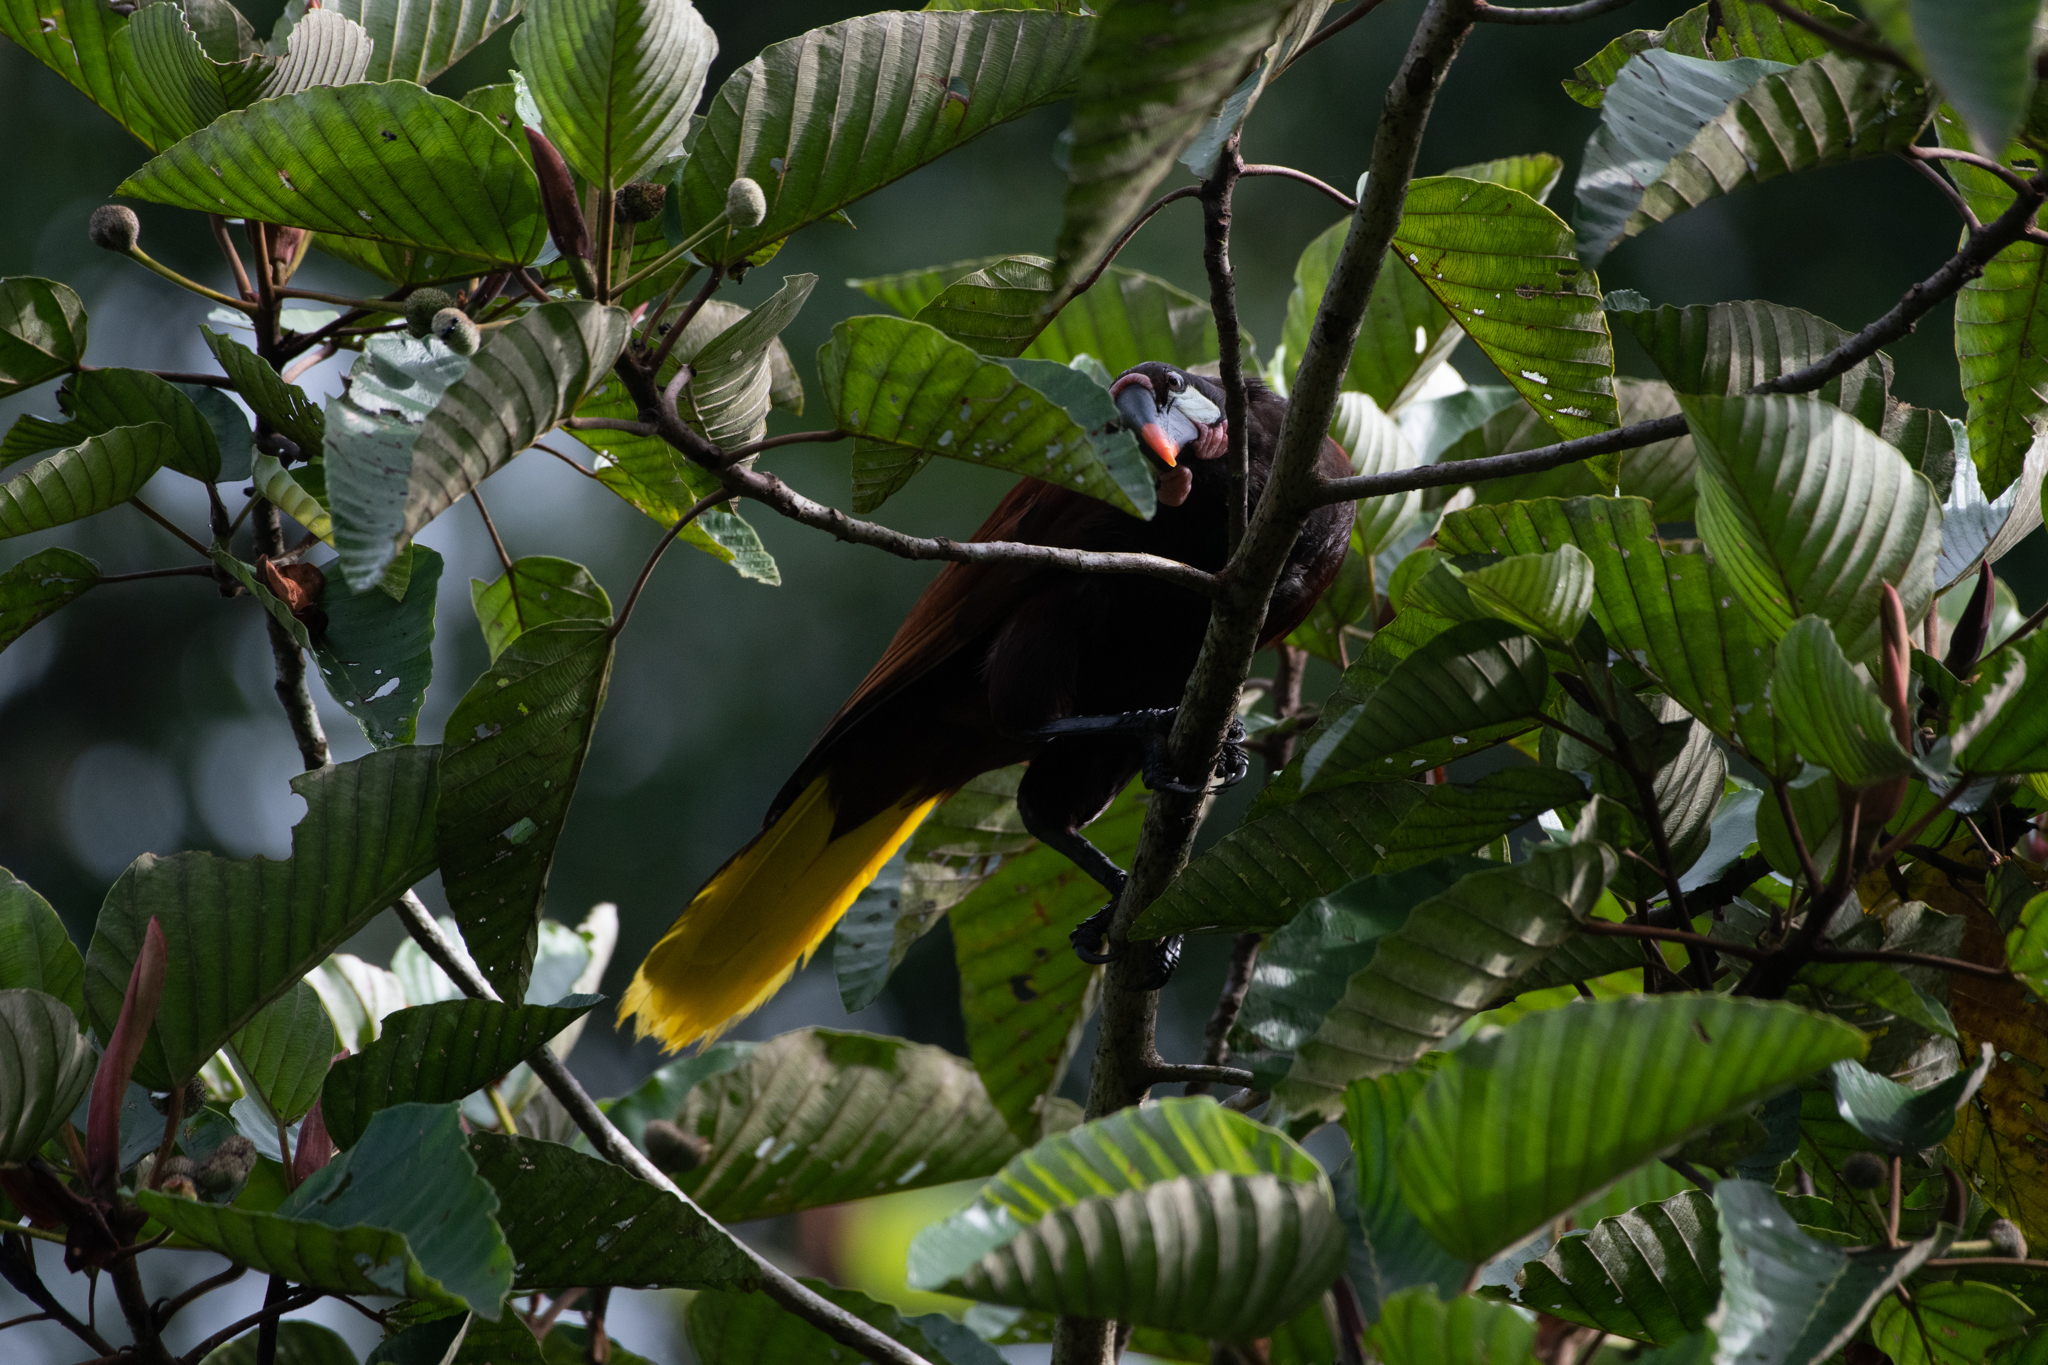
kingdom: Animalia
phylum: Chordata
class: Aves
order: Passeriformes
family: Icteridae
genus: Psarocolius
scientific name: Psarocolius montezuma
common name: Montezuma oropendola
